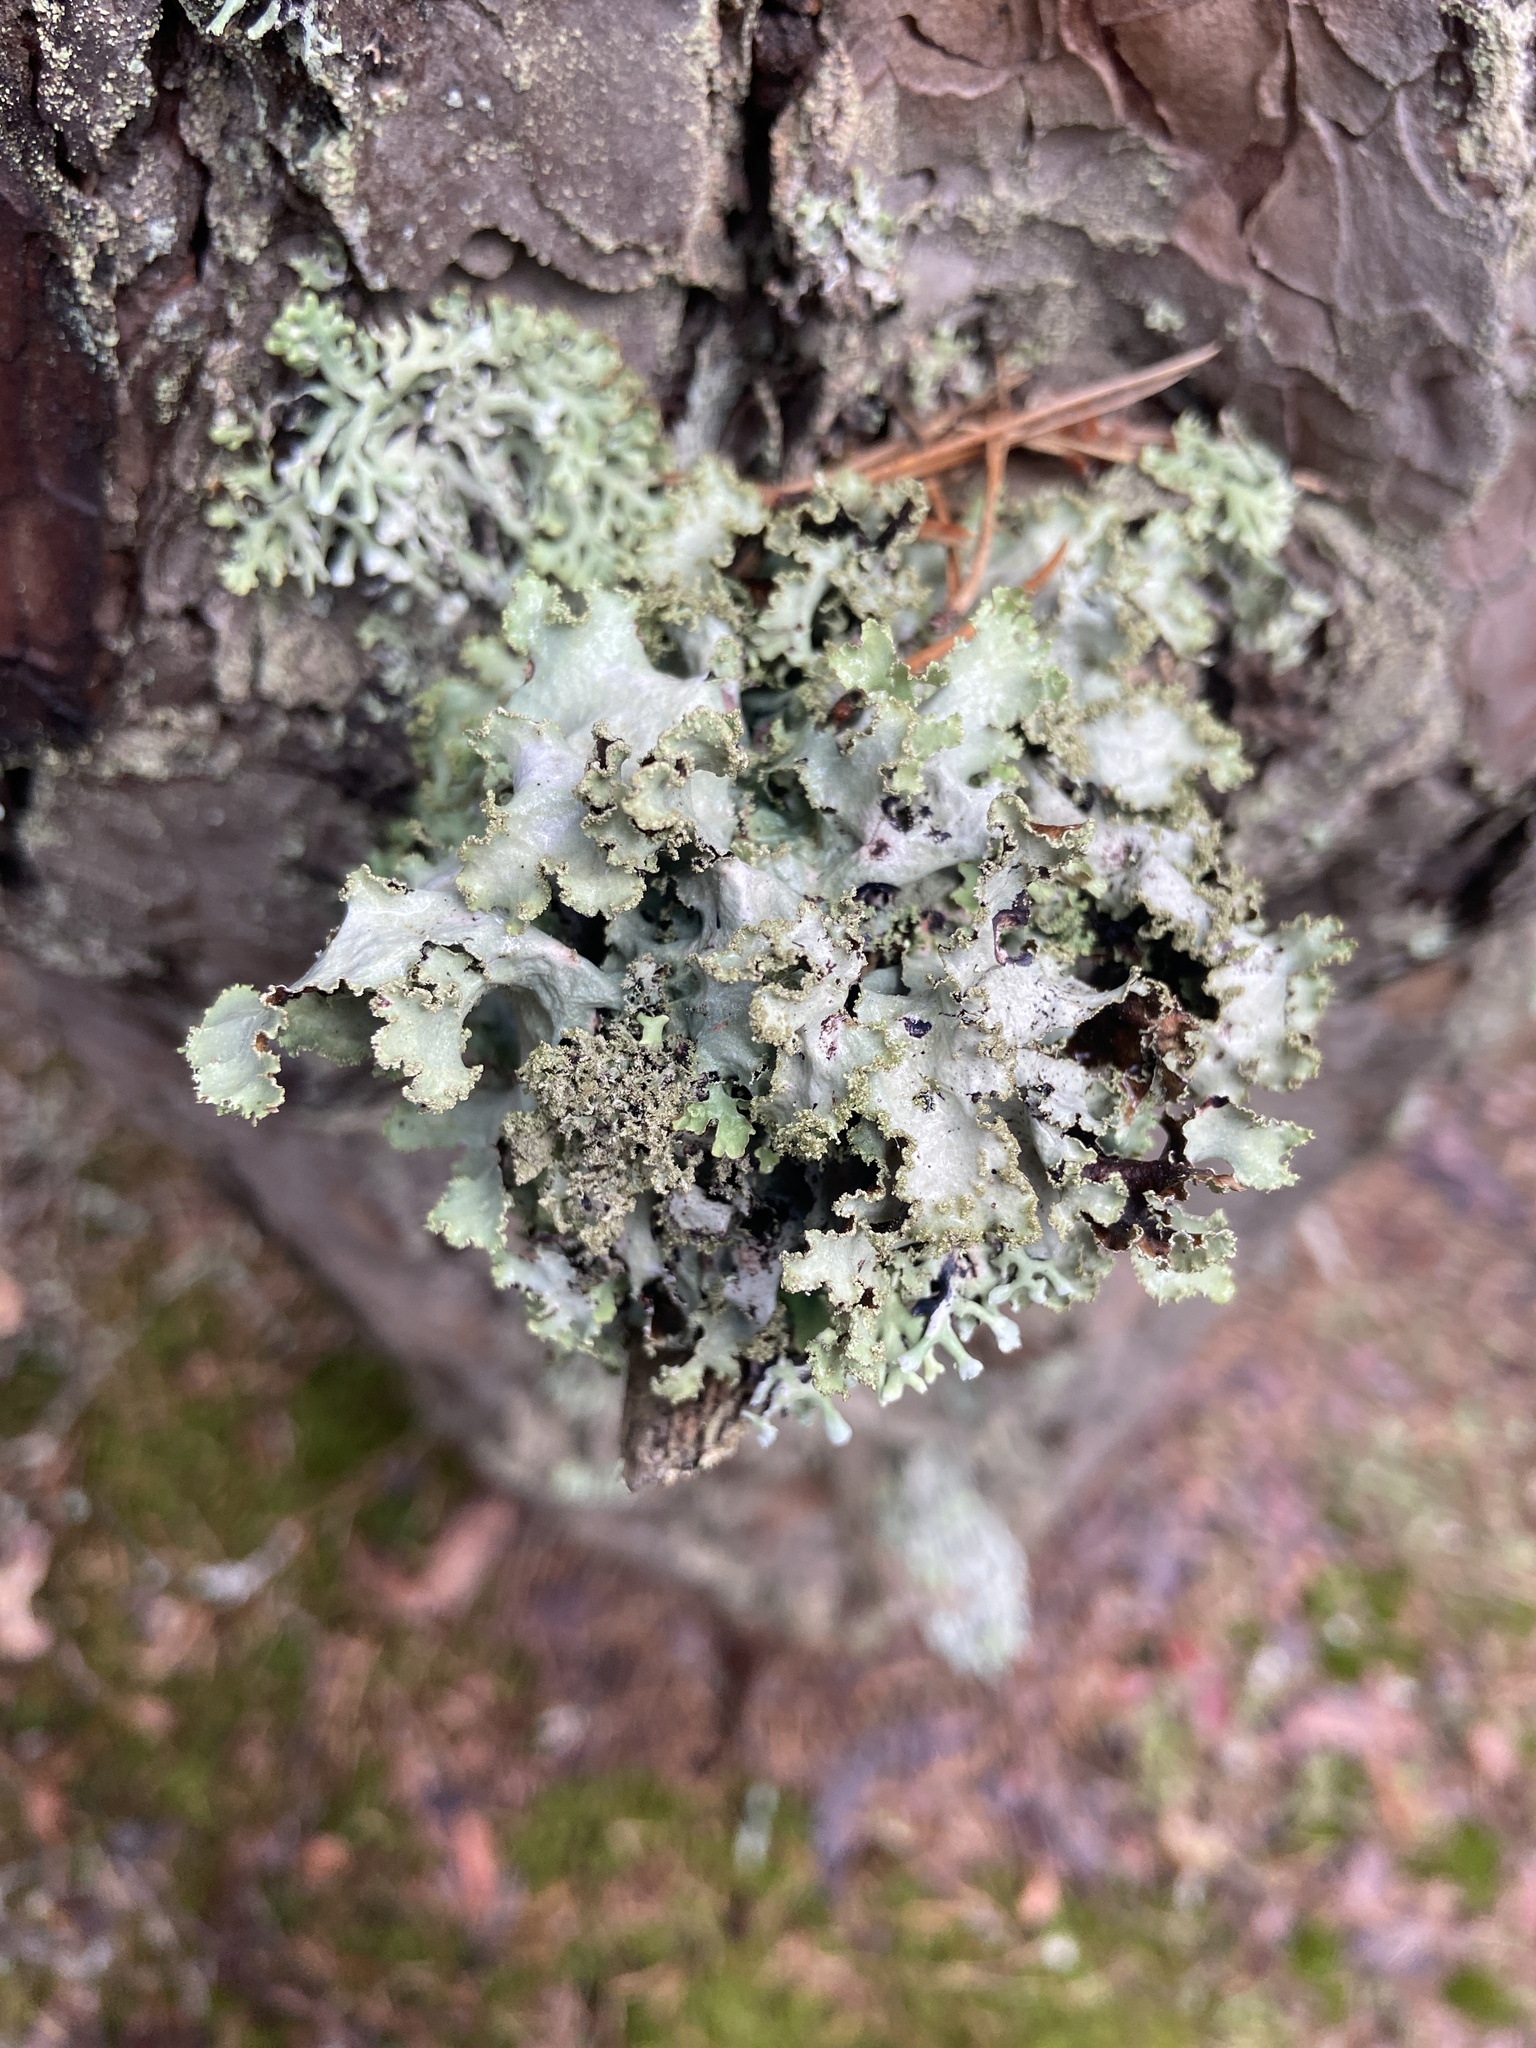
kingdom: Fungi
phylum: Ascomycota
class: Lecanoromycetes
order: Lecanorales
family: Parmeliaceae
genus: Platismatia
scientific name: Platismatia glauca
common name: Varied rag lichen
